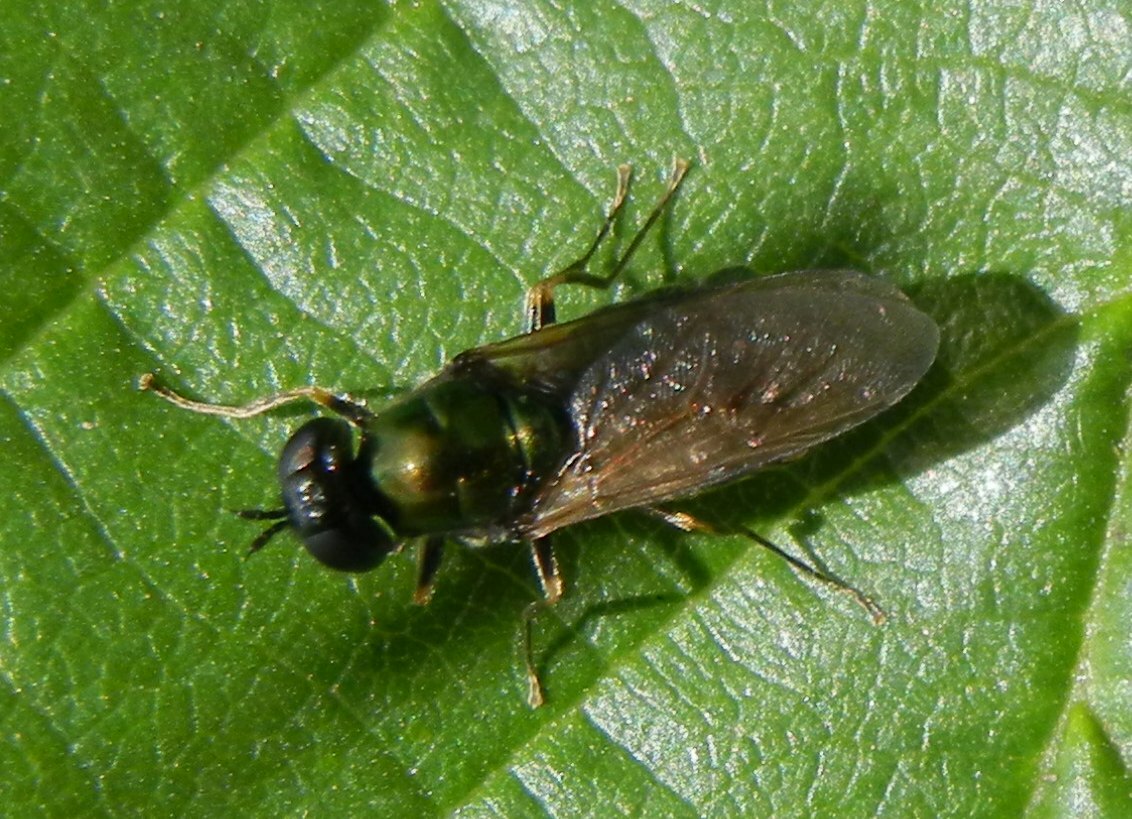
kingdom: Animalia
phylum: Arthropoda
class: Insecta
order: Diptera
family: Stratiomyidae
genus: Chloromyia
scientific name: Chloromyia formosa
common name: Soldier fly
